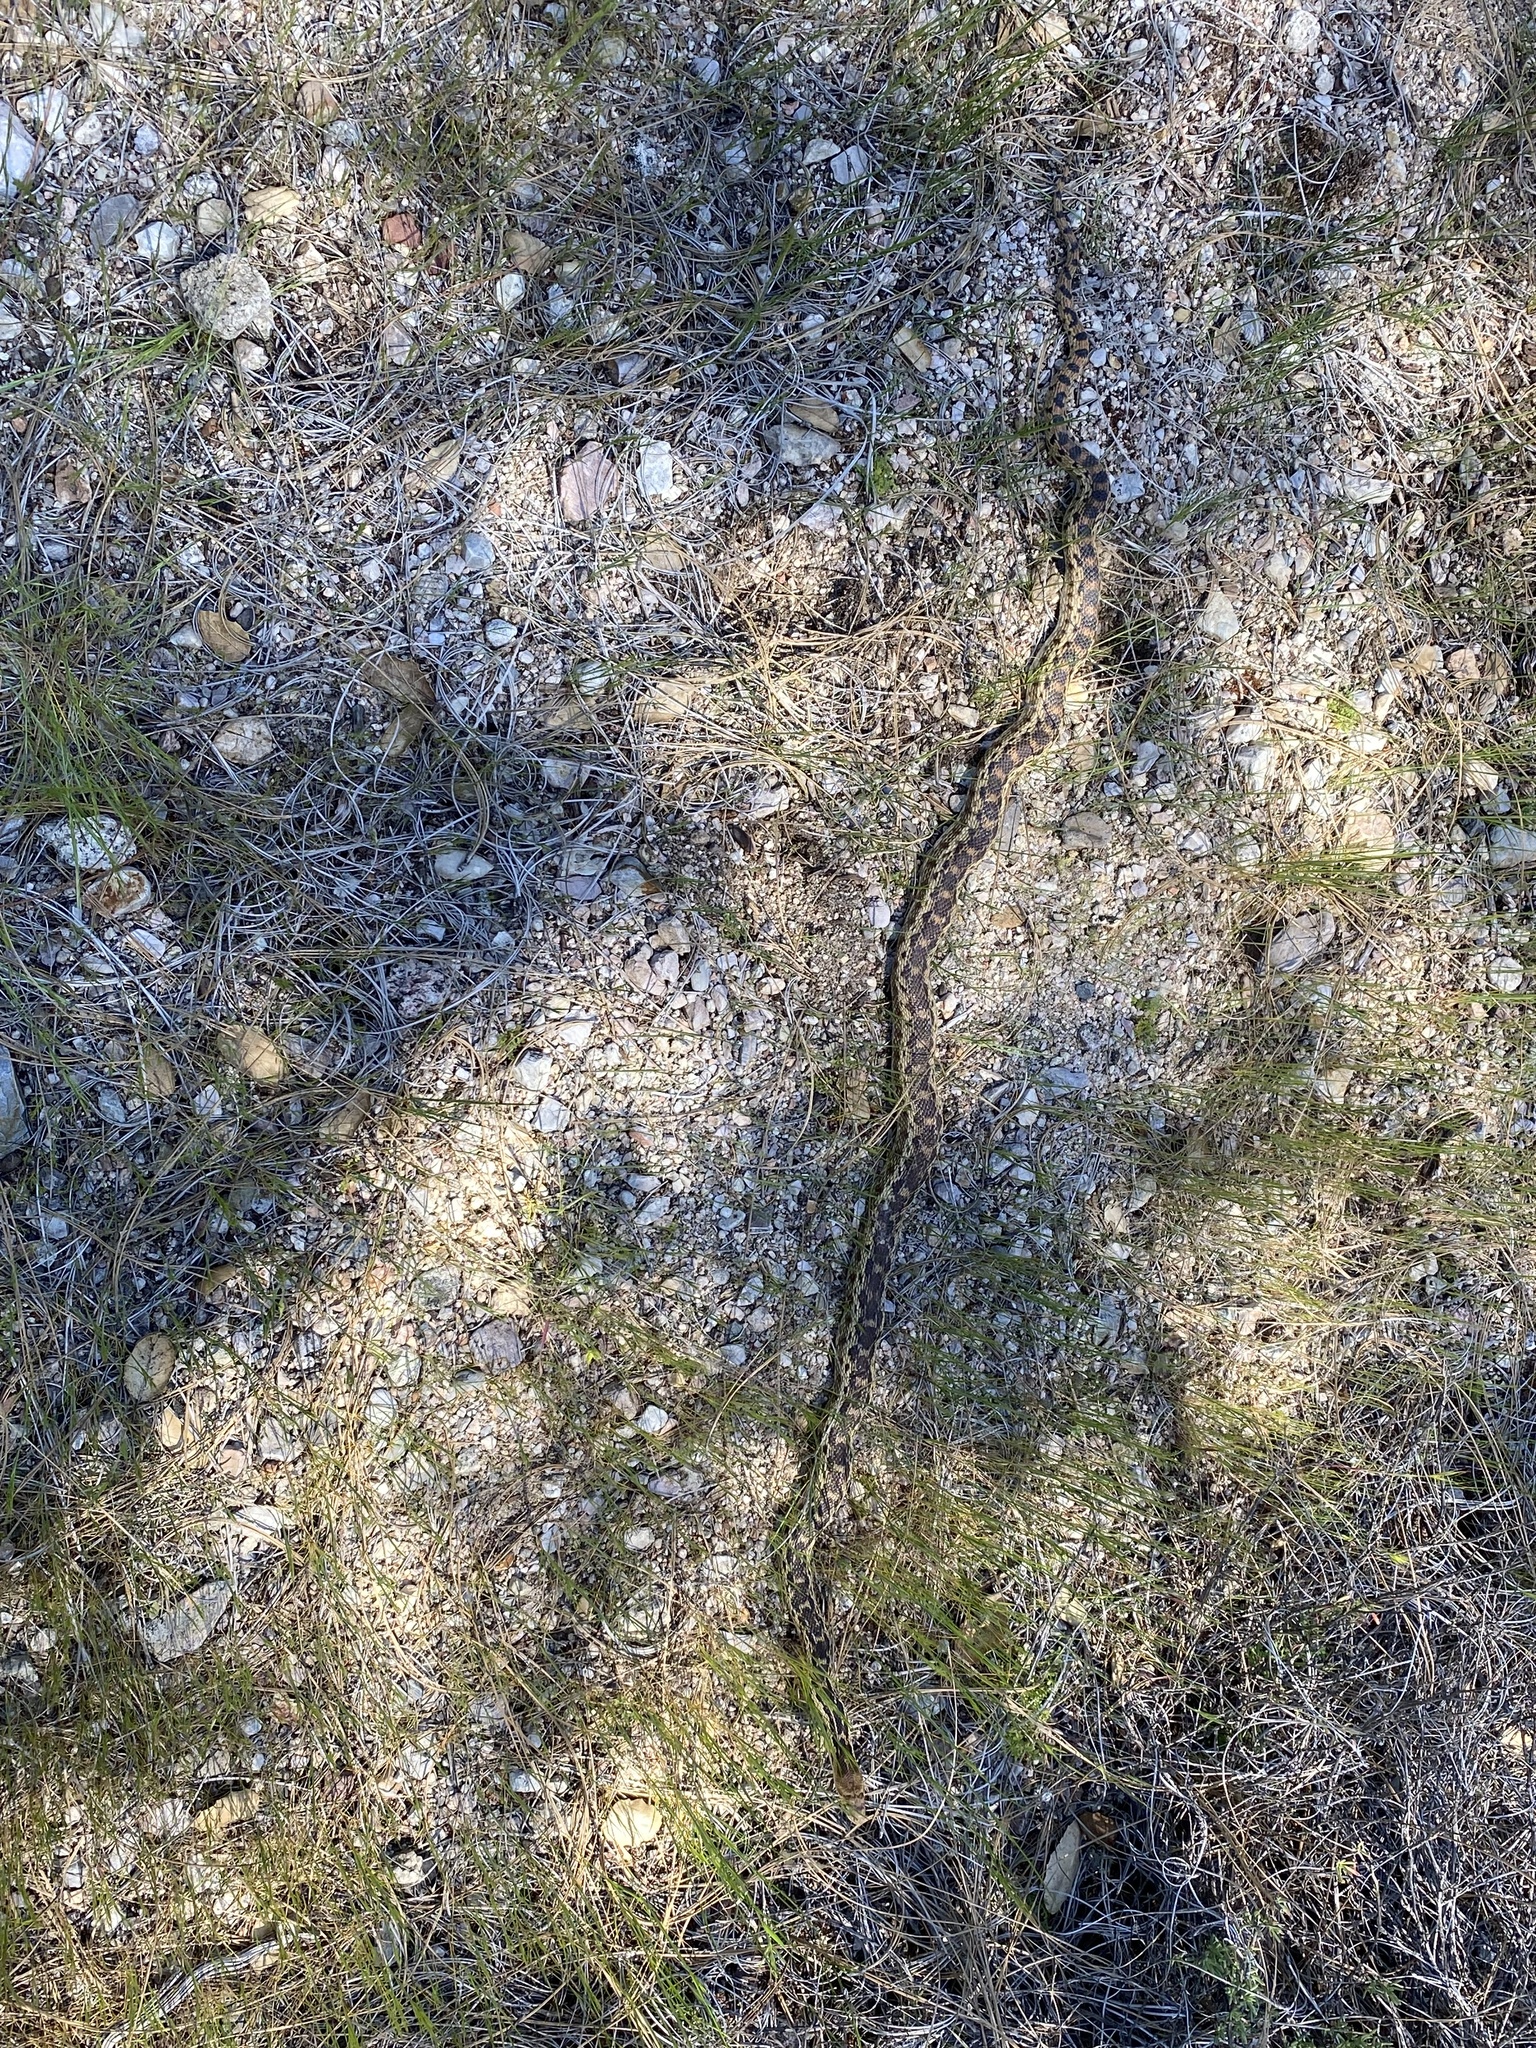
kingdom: Animalia
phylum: Chordata
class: Squamata
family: Colubridae
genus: Pituophis
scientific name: Pituophis catenifer
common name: Gopher snake
